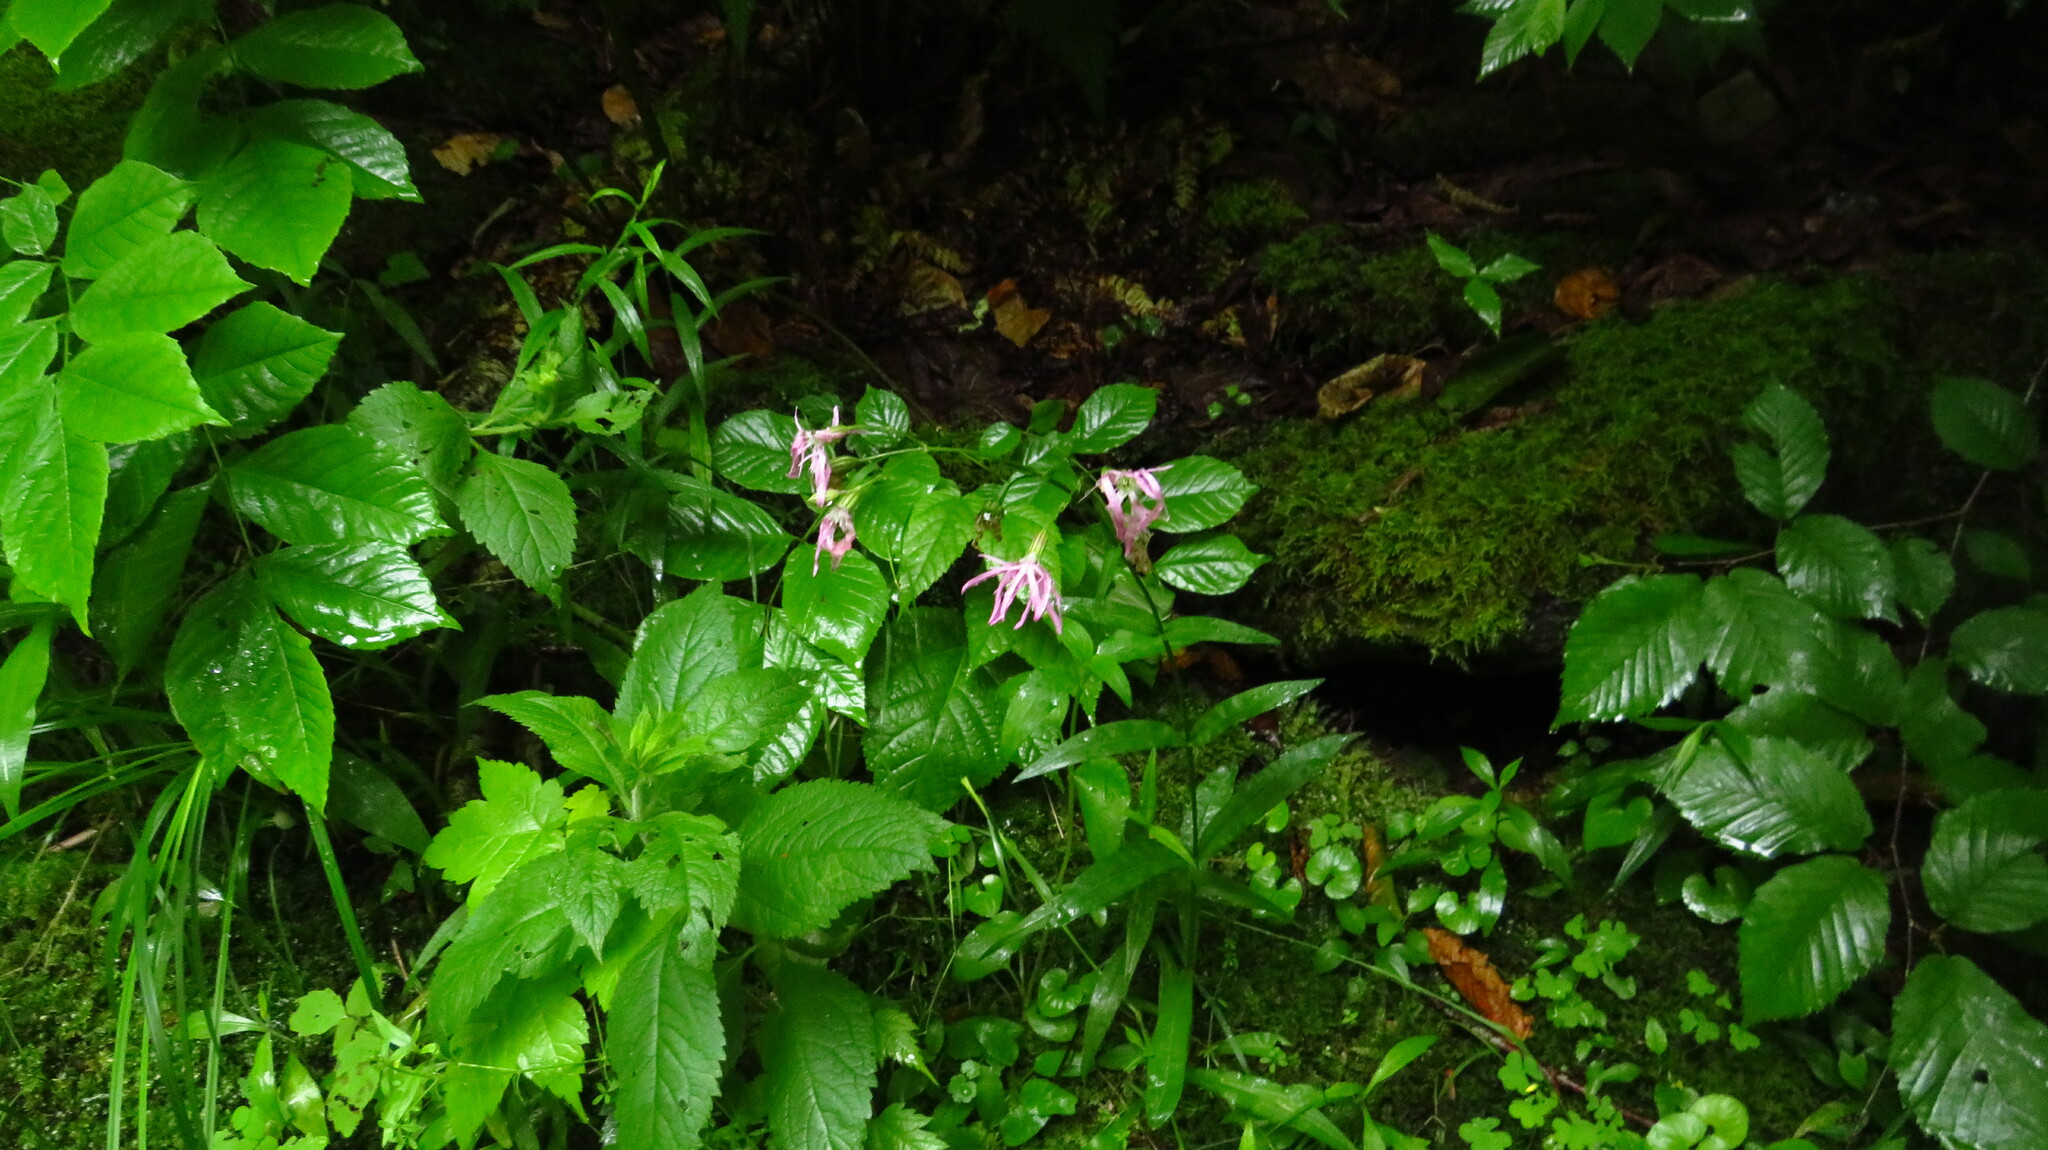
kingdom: Plantae
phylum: Tracheophyta
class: Magnoliopsida
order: Caryophyllales
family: Caryophyllaceae
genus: Silene
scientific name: Silene flos-cuculi
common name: Ragged-robin
